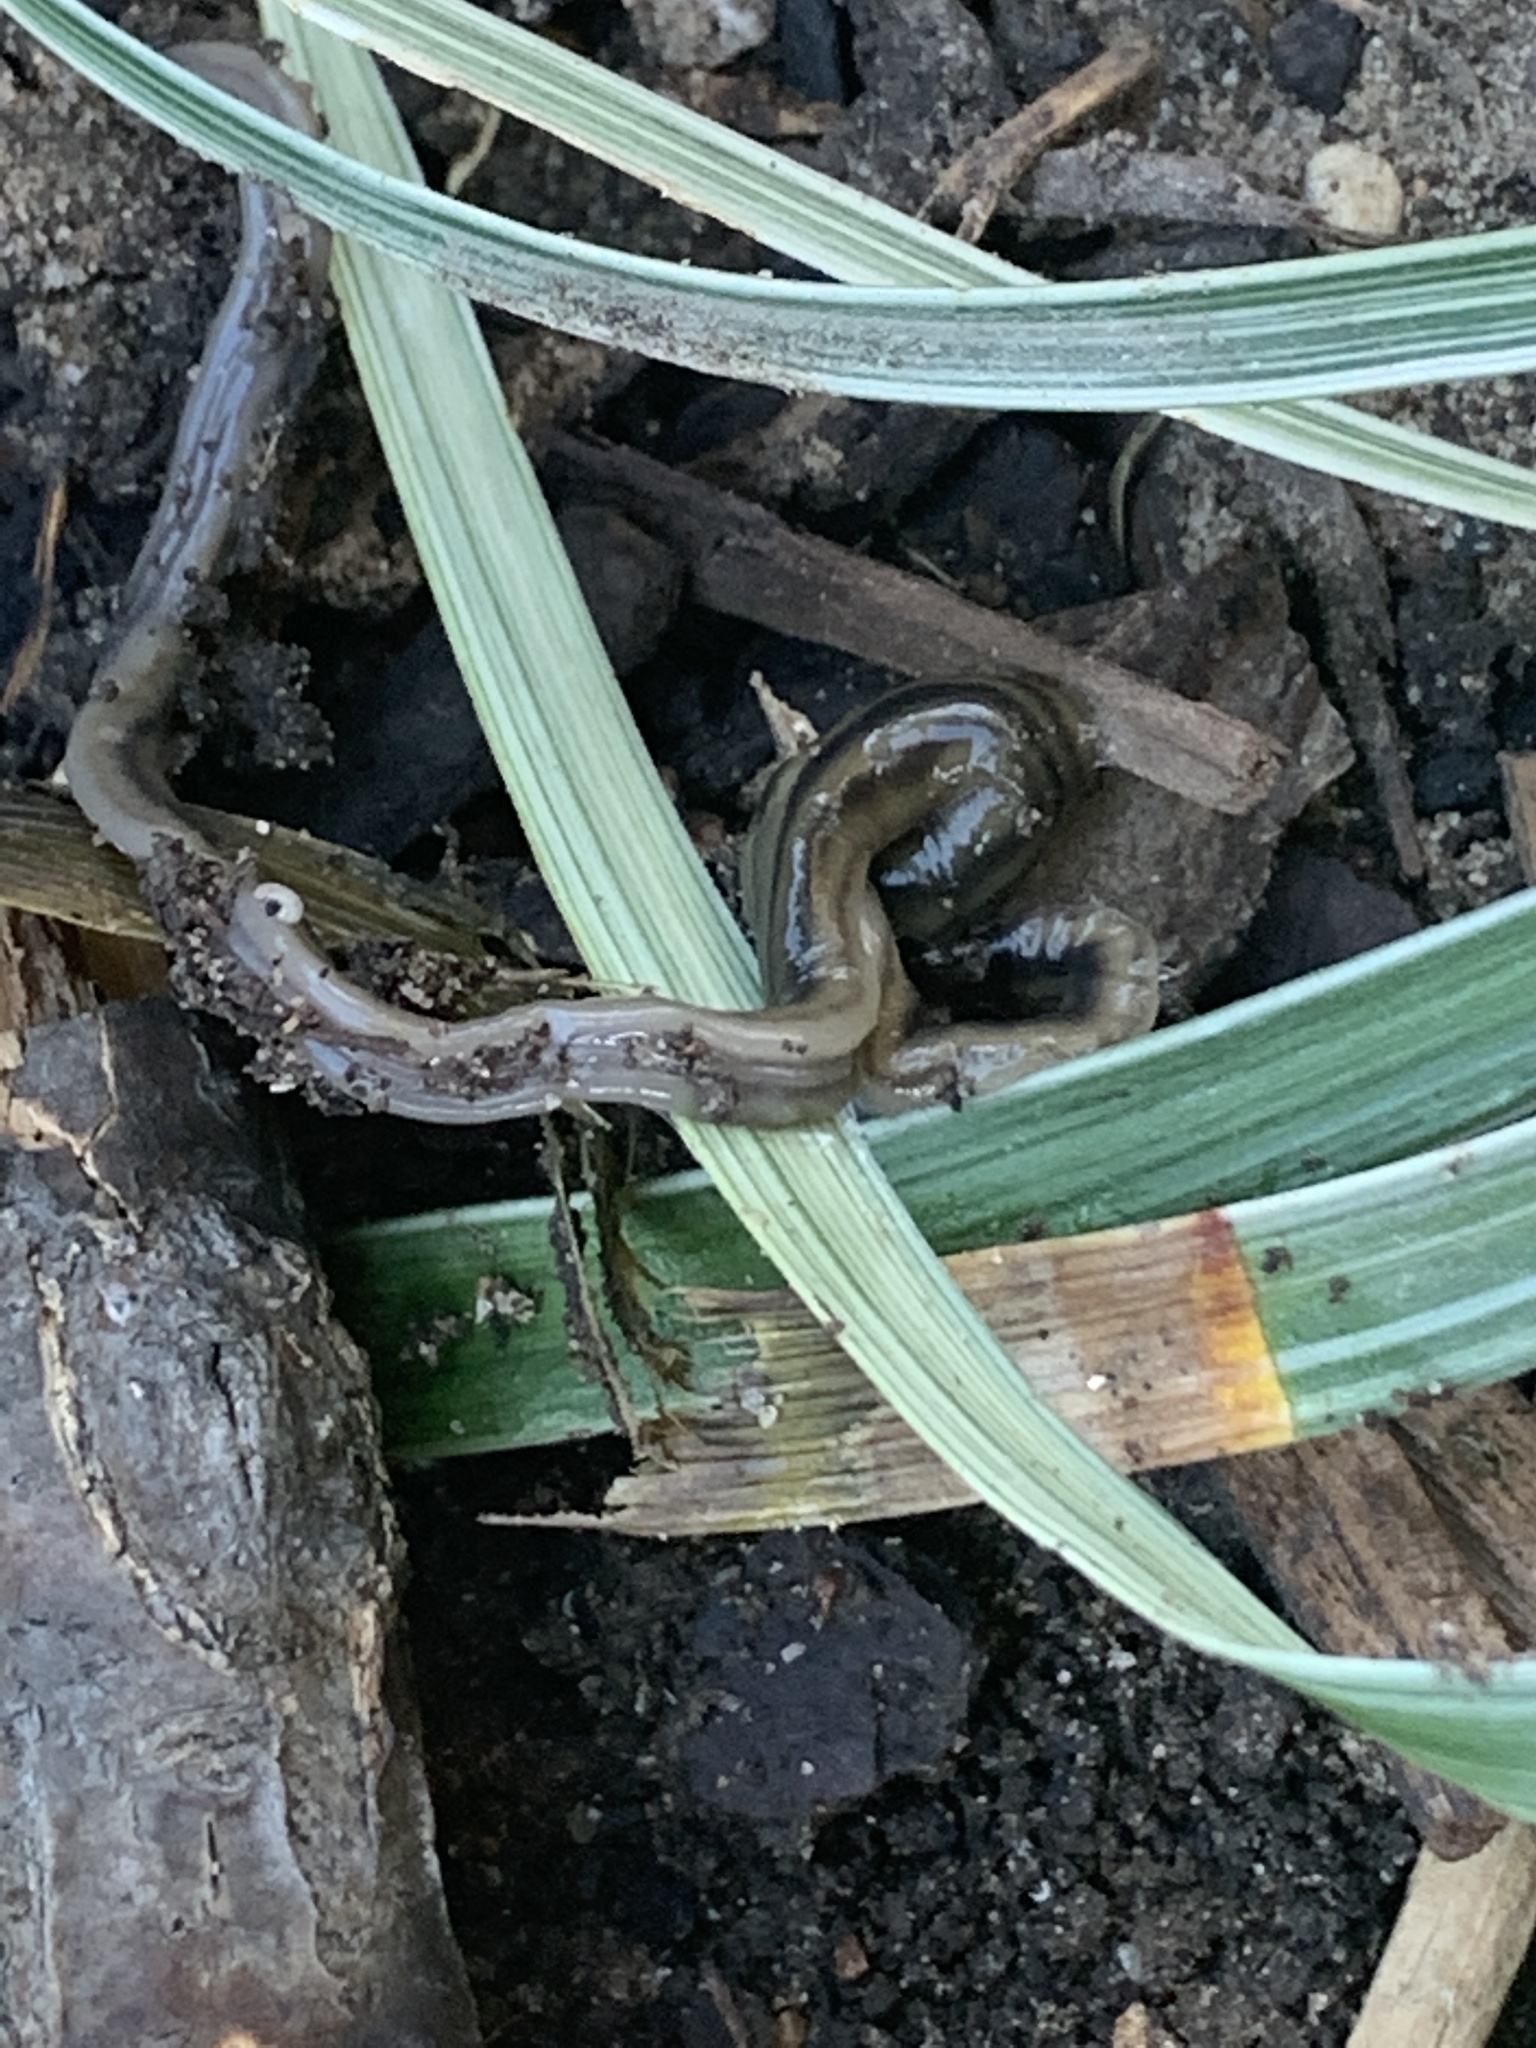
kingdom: Animalia
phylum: Platyhelminthes
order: Tricladida
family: Geoplanidae
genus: Bipalium
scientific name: Bipalium kewense
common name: Hammerhead flatworm
